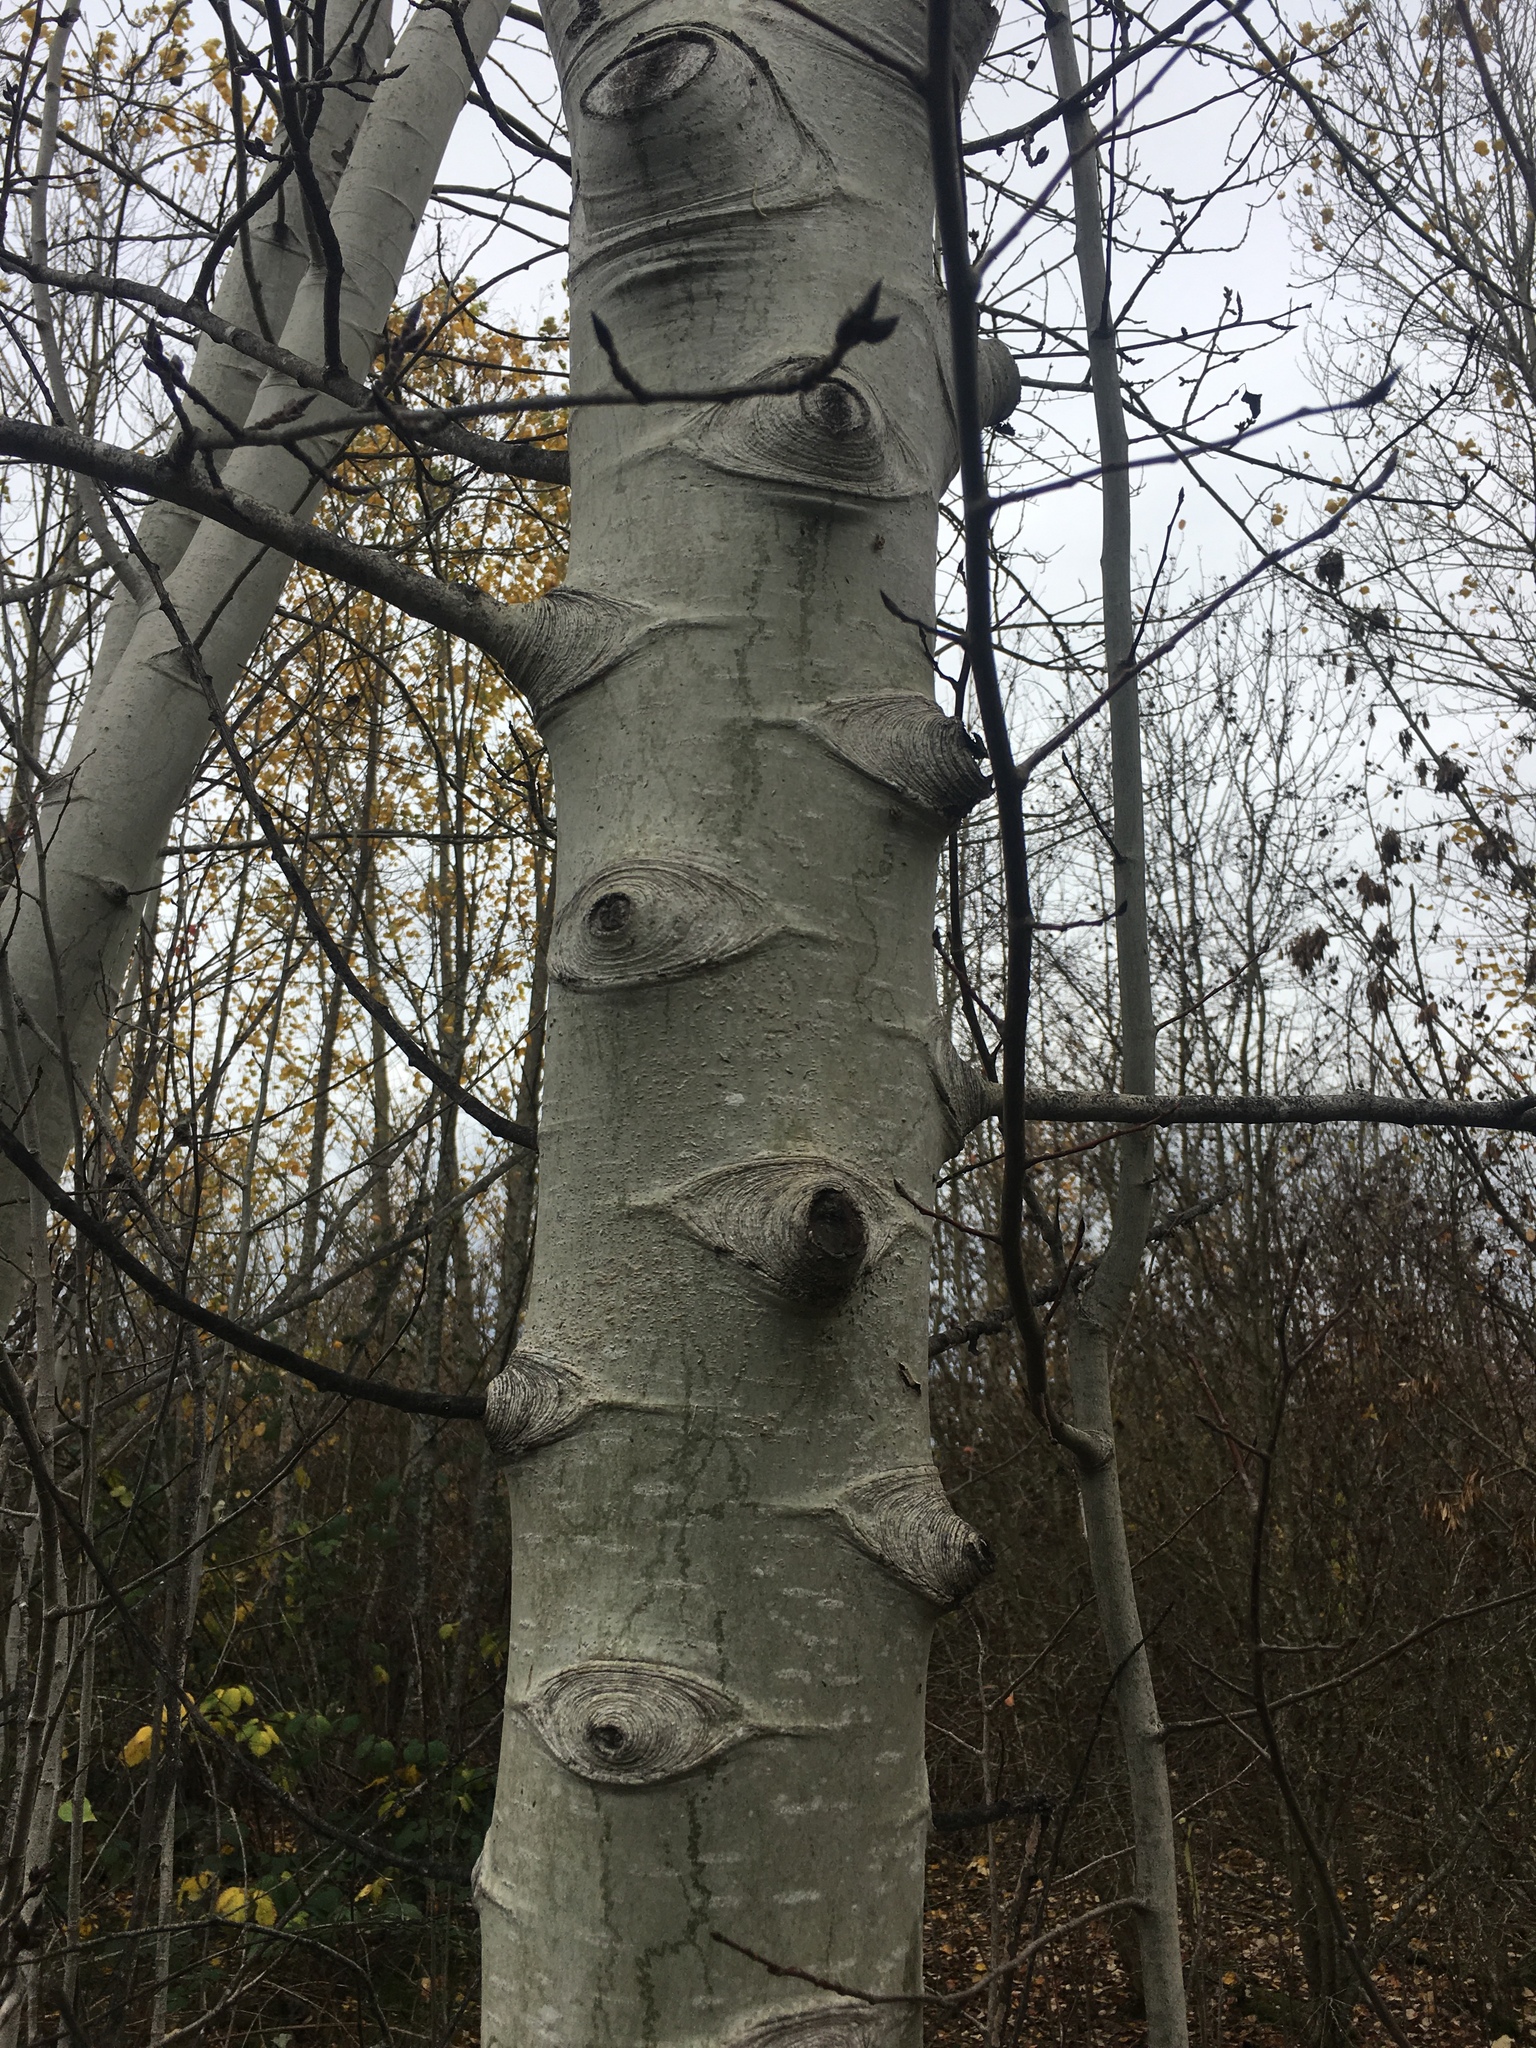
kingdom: Plantae
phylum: Tracheophyta
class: Magnoliopsida
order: Fagales
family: Betulaceae
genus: Alnus
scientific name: Alnus rubra
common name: Red alder
